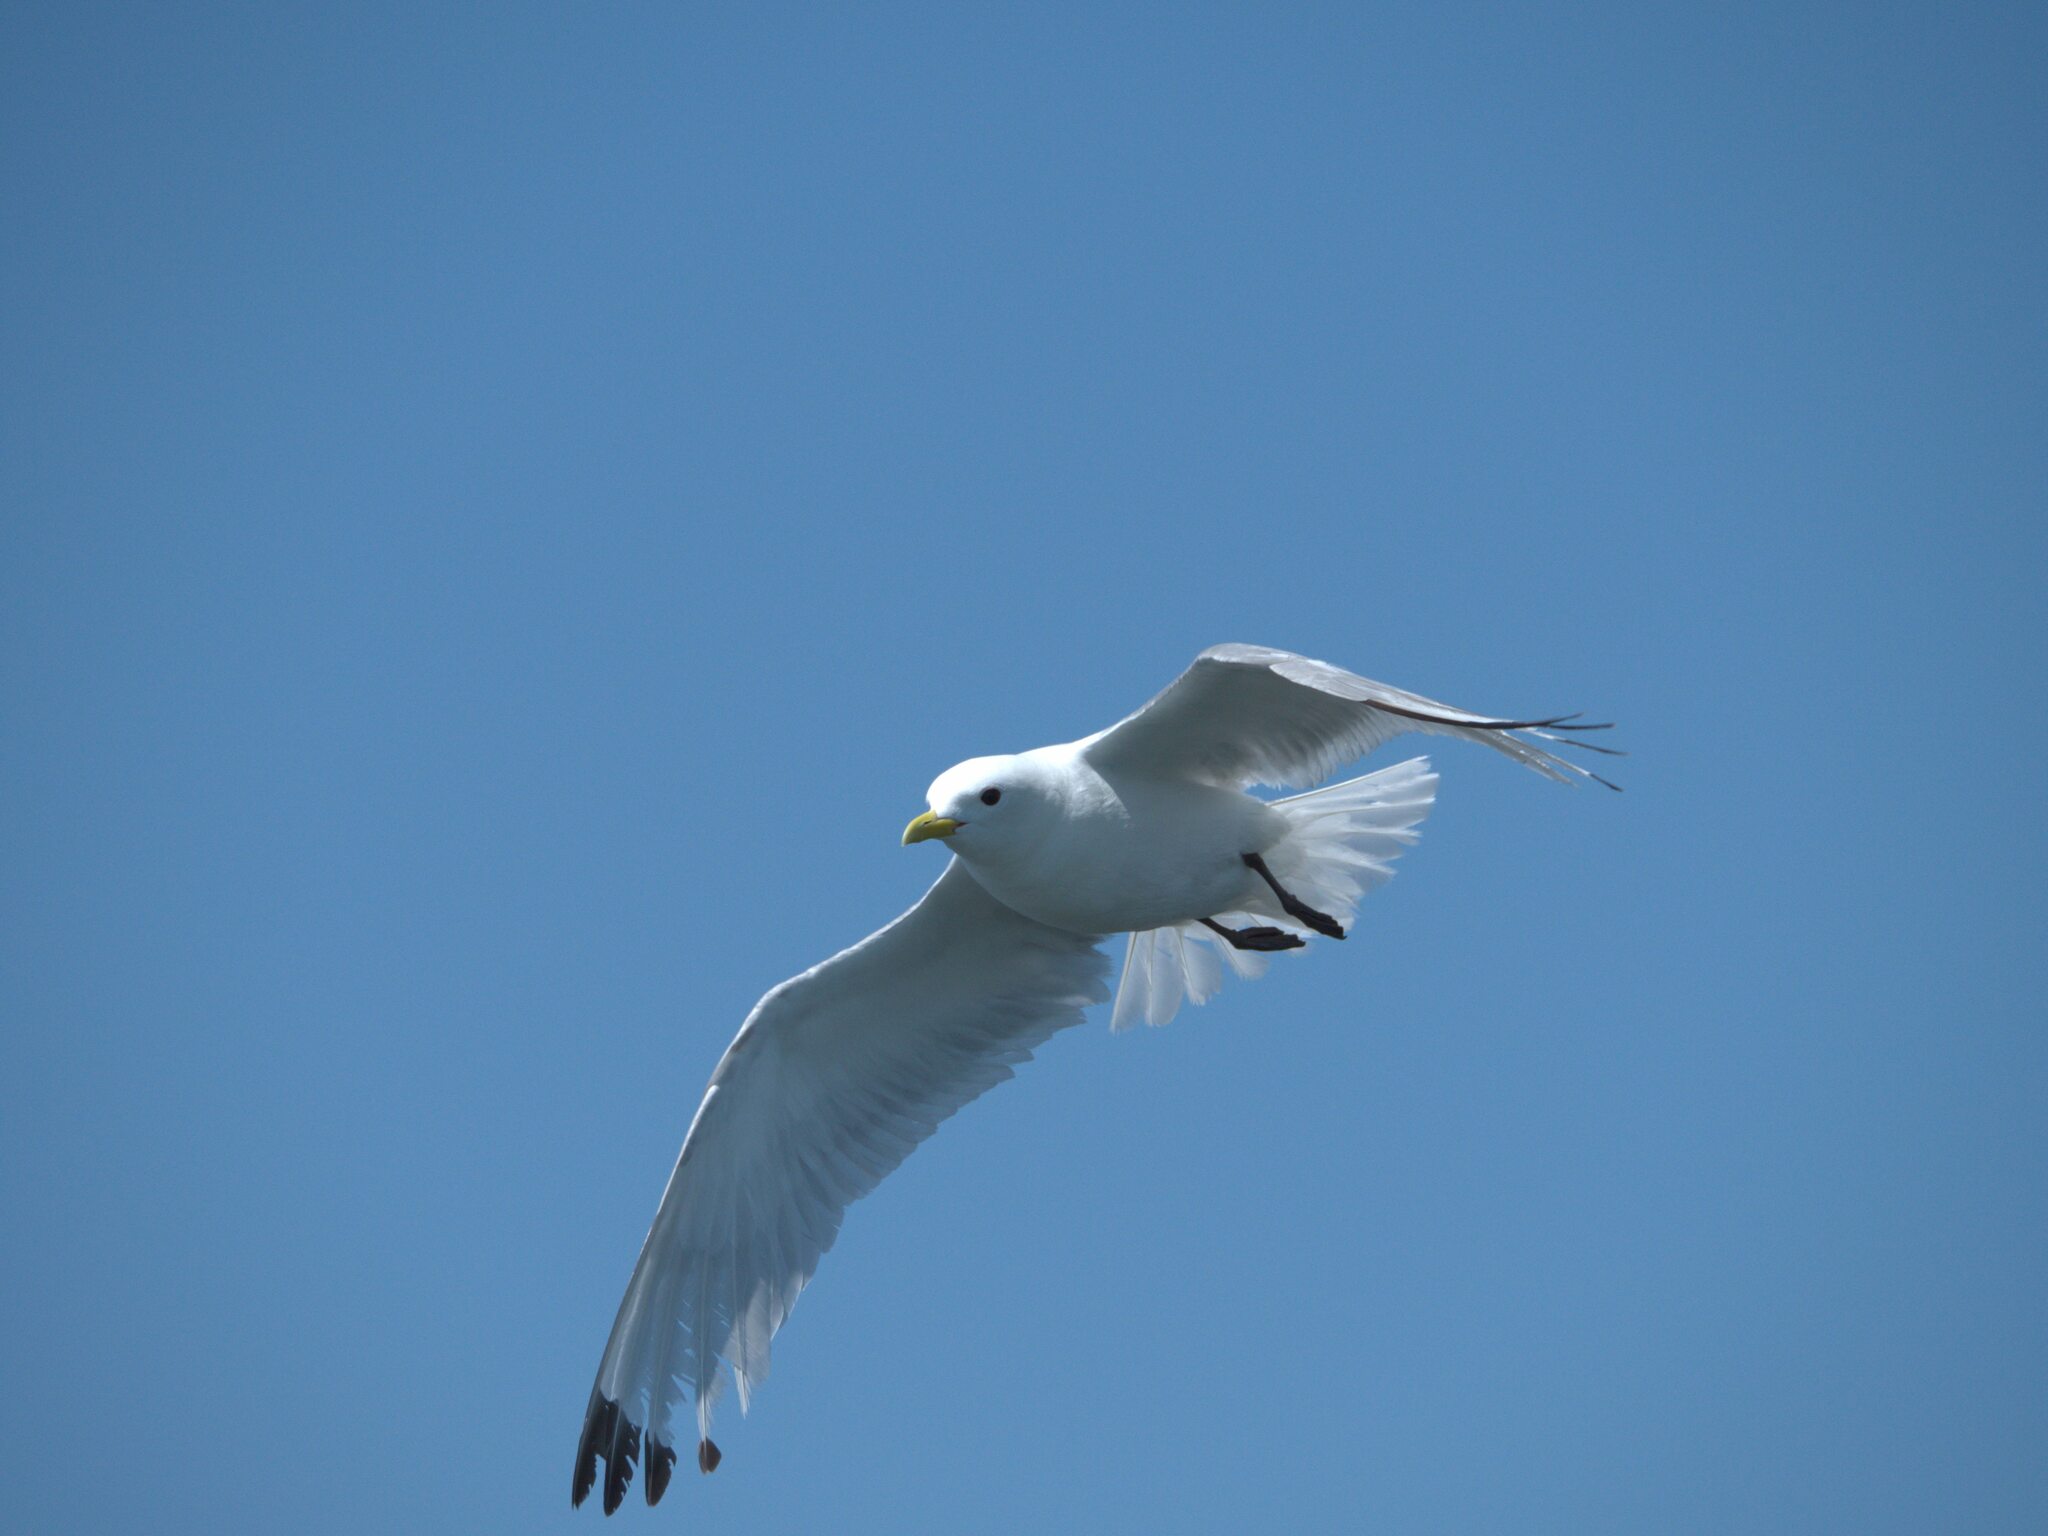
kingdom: Animalia
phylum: Chordata
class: Aves
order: Charadriiformes
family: Laridae
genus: Rissa
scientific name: Rissa tridactyla
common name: Black-legged kittiwake
